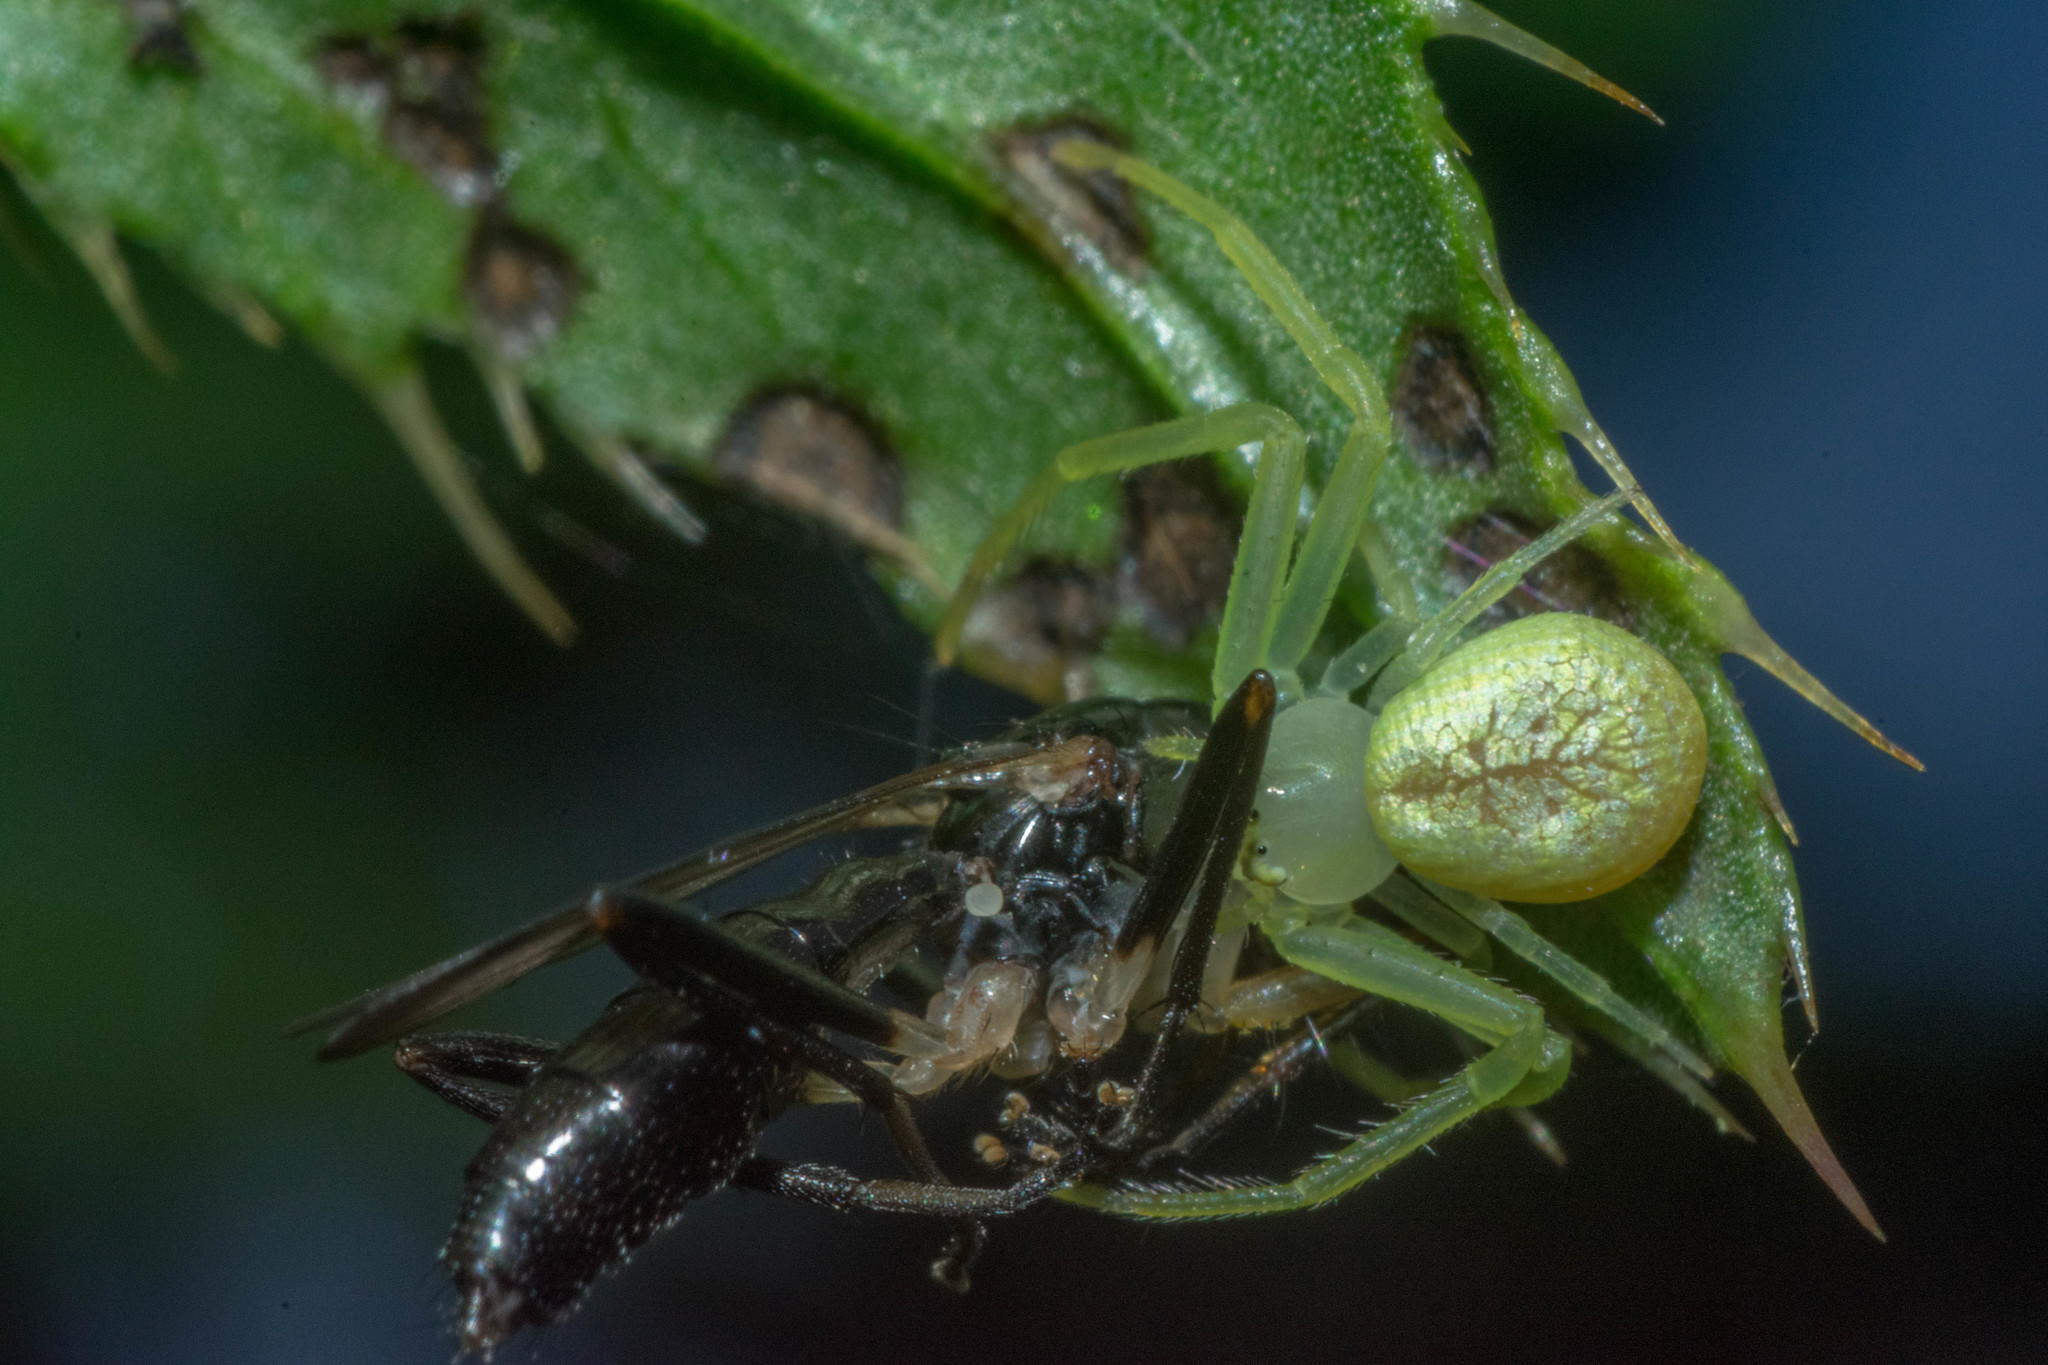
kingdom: Animalia
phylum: Arthropoda
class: Arachnida
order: Araneae
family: Thomisidae
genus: Misumessus
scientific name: Misumessus oblongus
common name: American green crab spider
